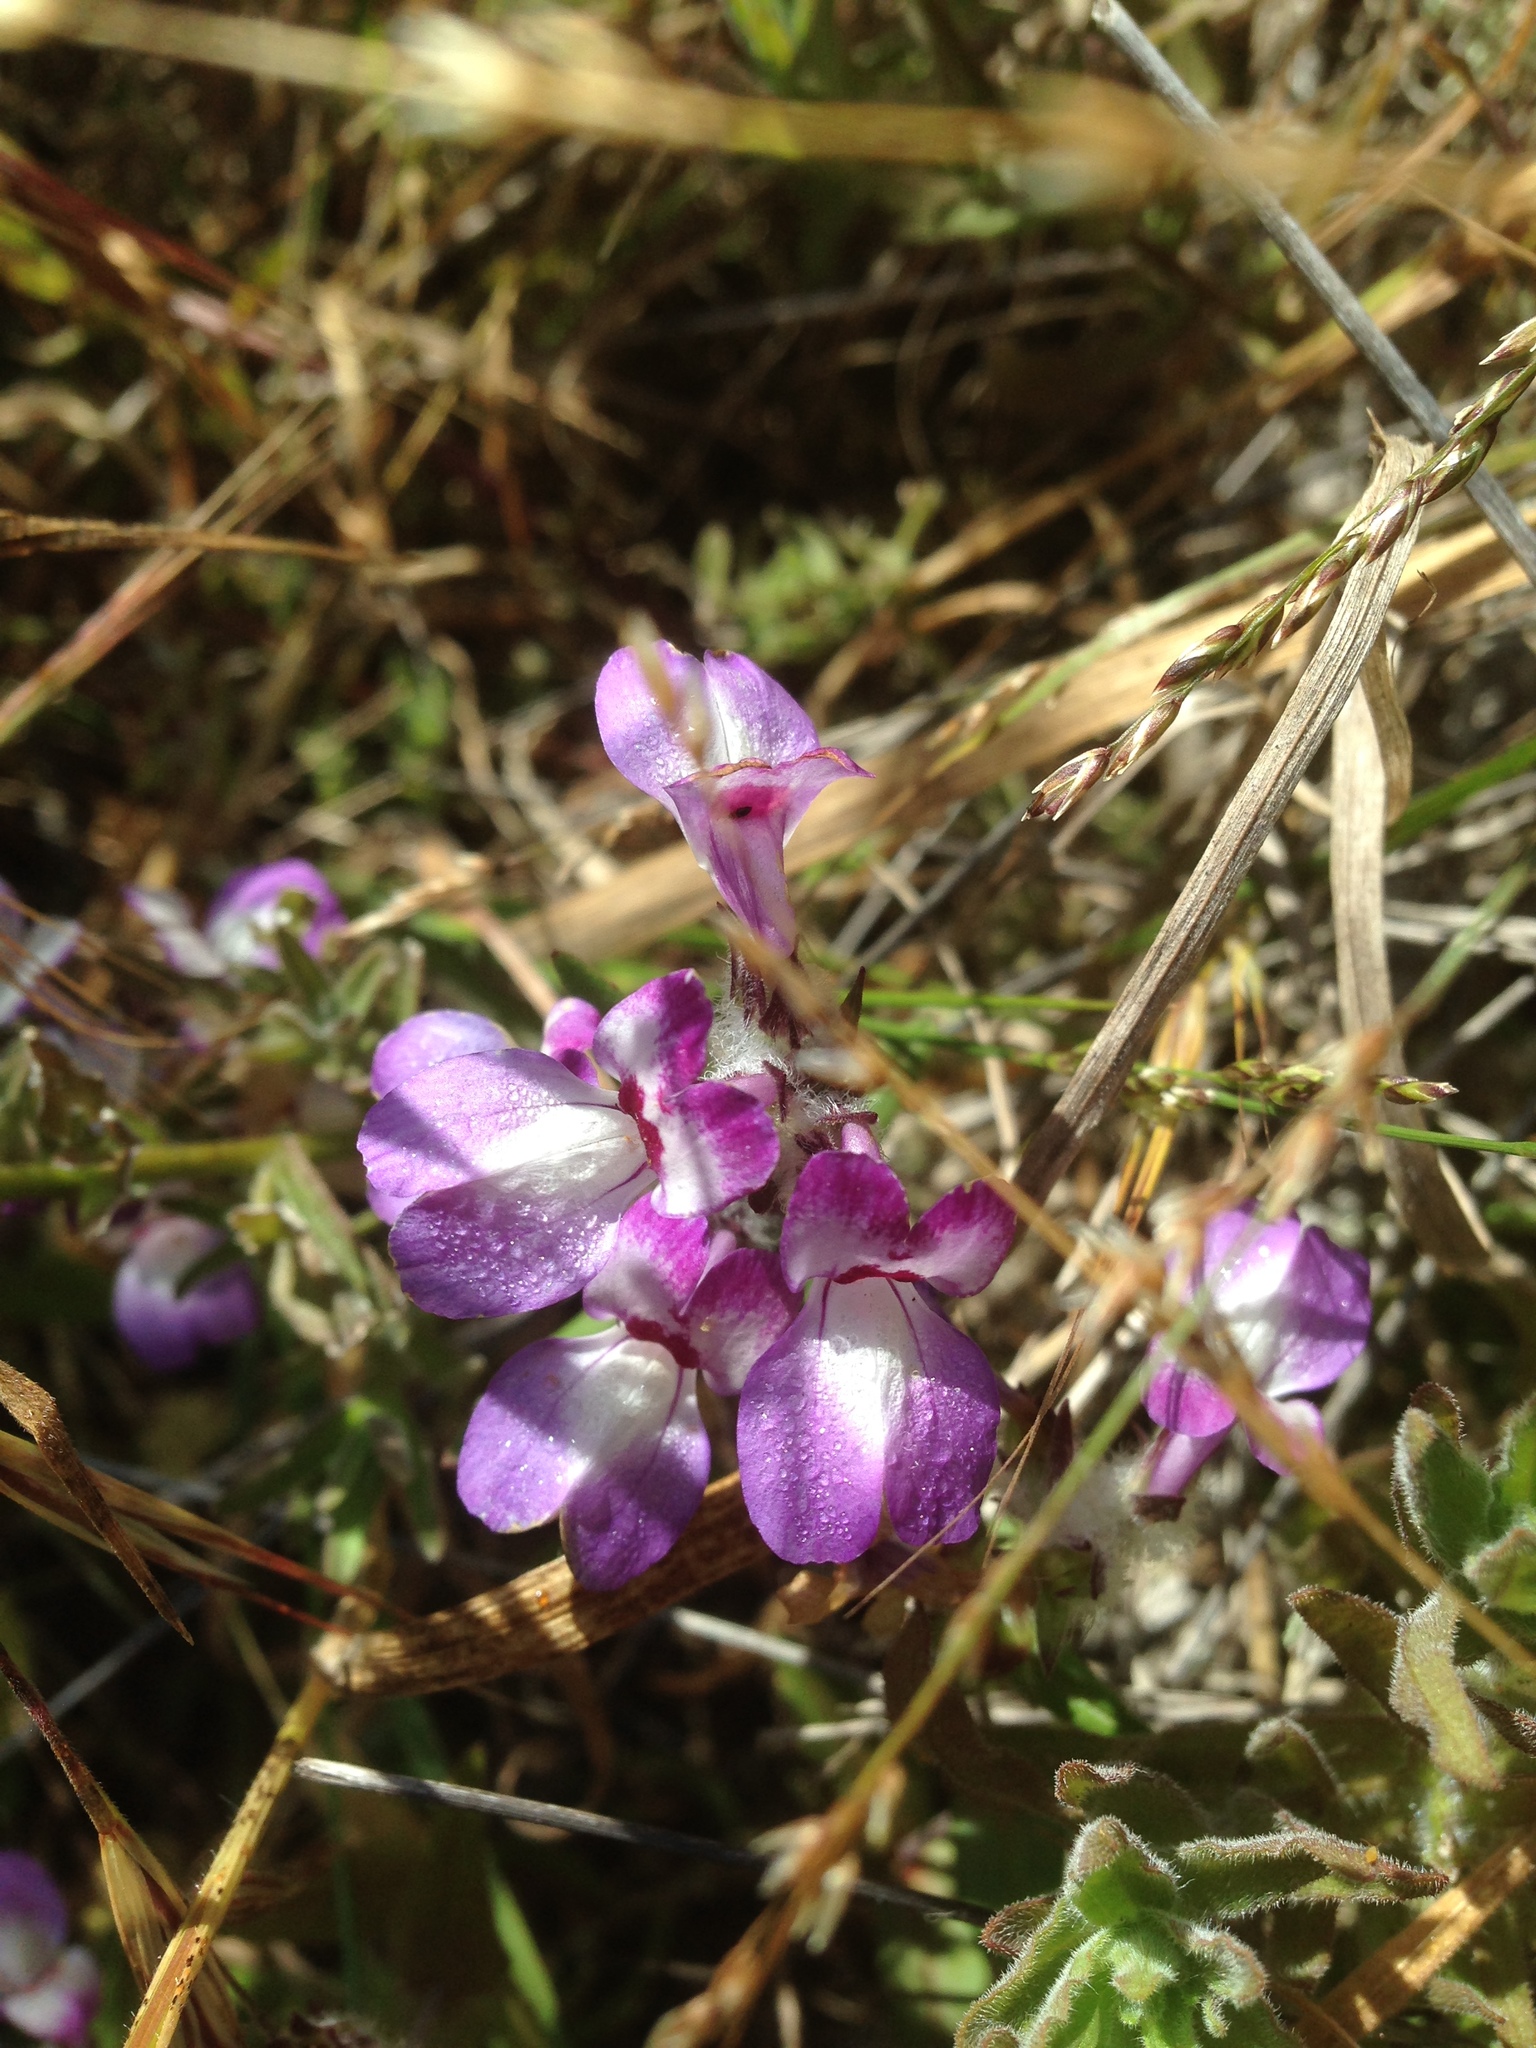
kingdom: Plantae
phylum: Tracheophyta
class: Magnoliopsida
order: Lamiales
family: Plantaginaceae
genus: Collinsia
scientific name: Collinsia heterophylla
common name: Chinese-houses
